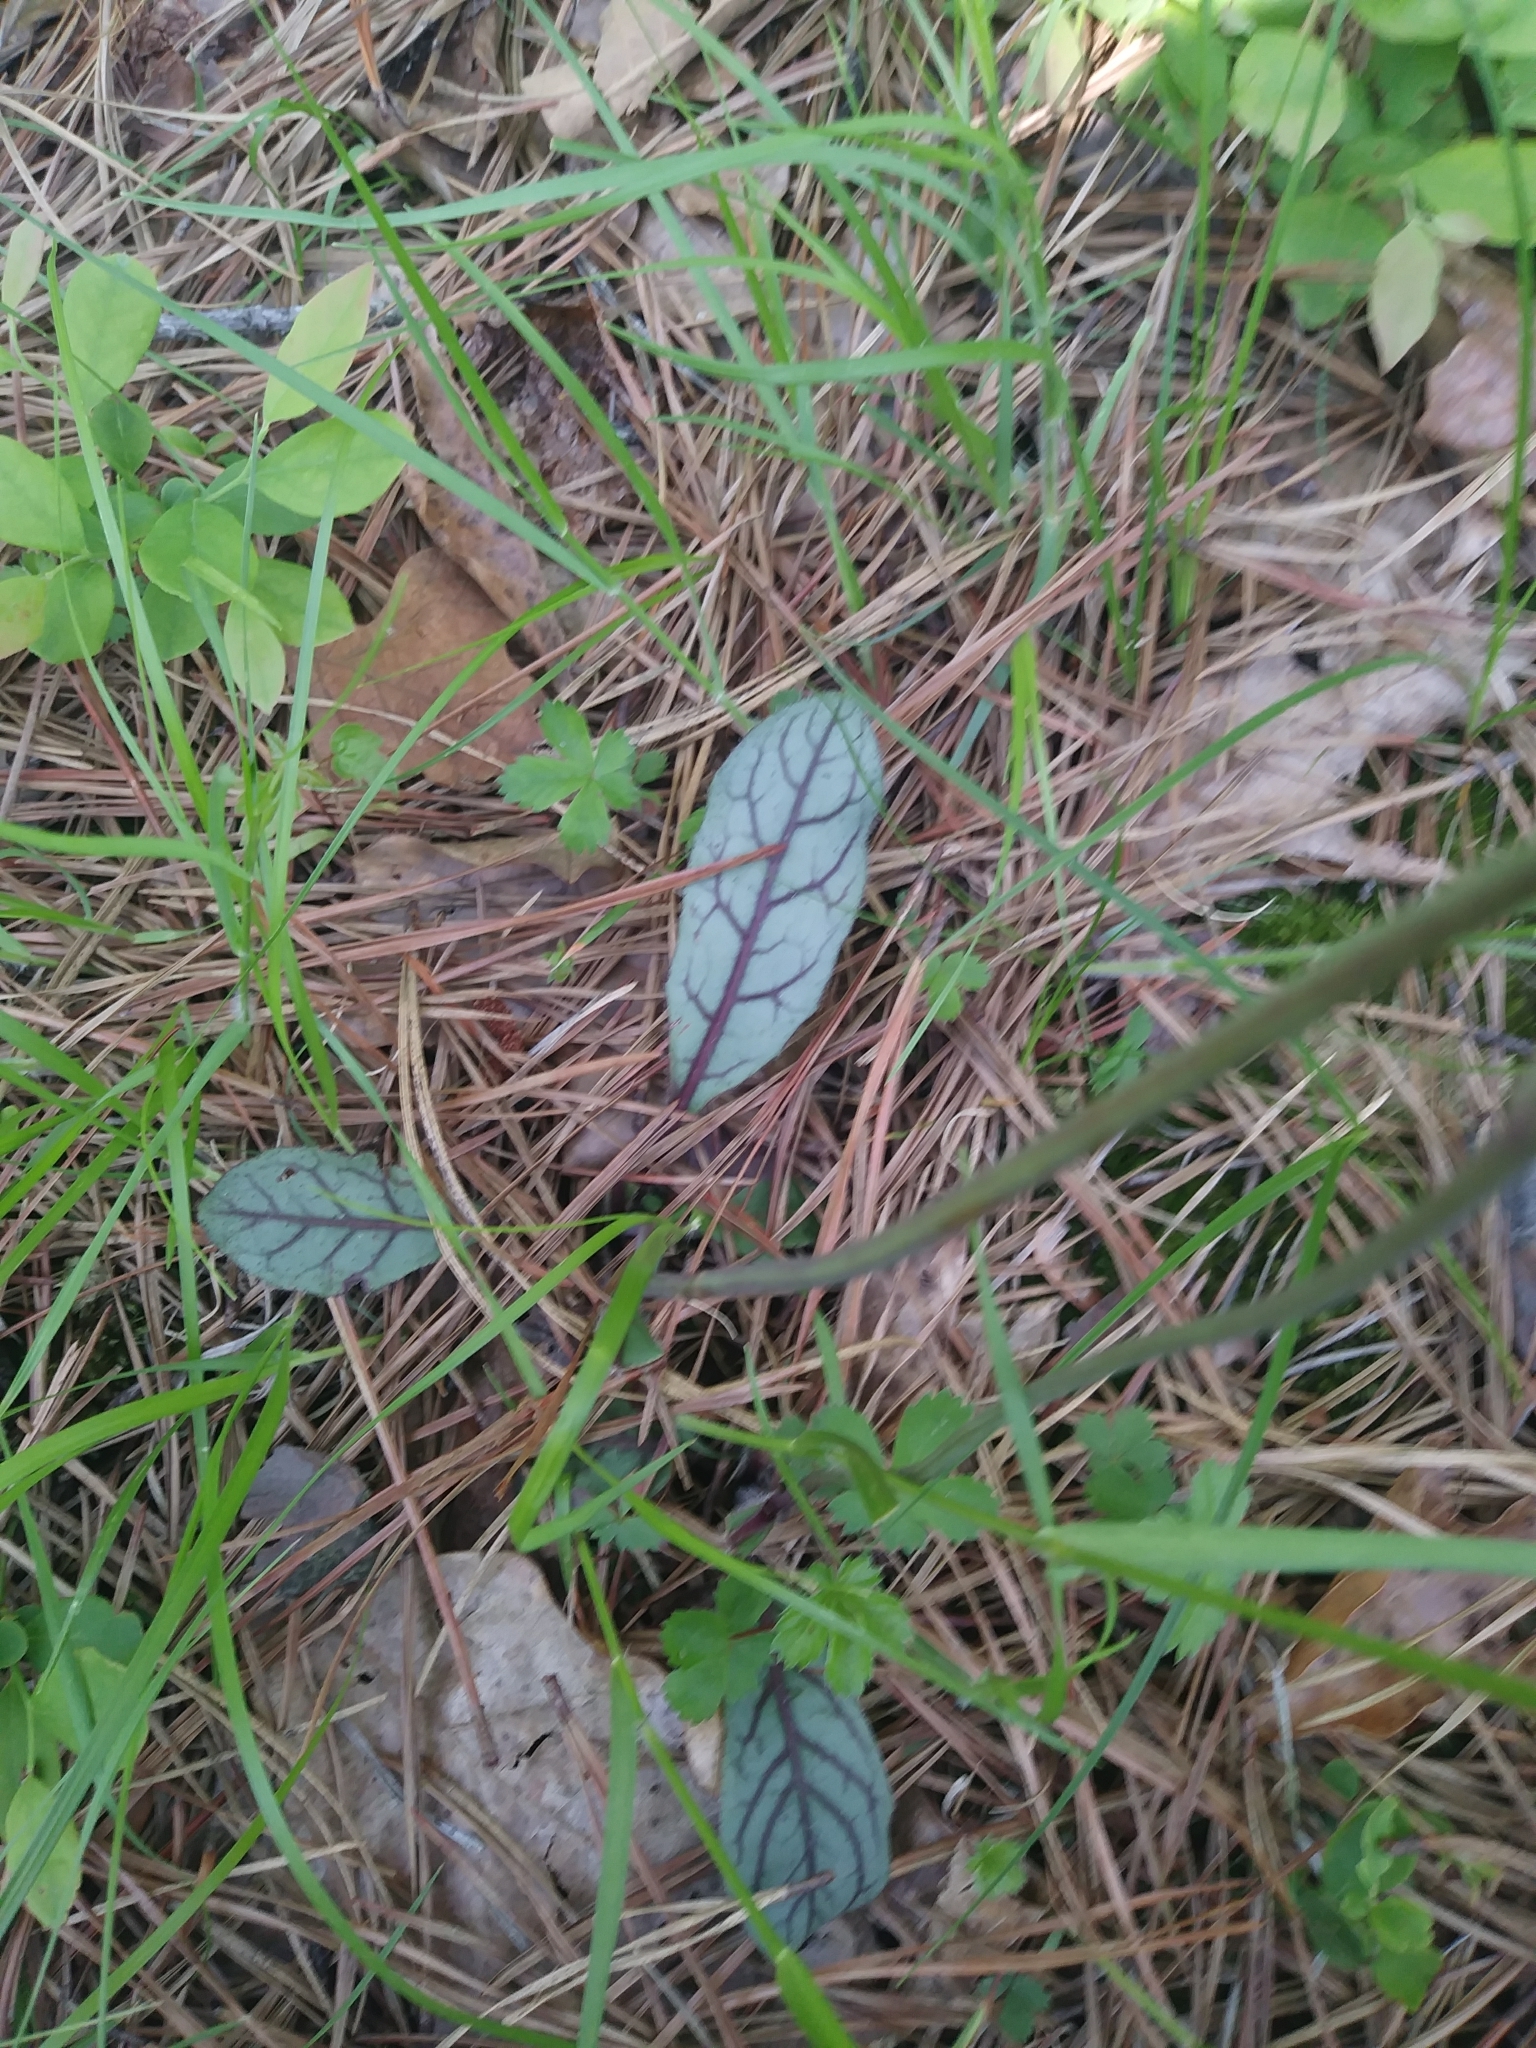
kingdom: Plantae
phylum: Tracheophyta
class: Magnoliopsida
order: Asterales
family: Asteraceae
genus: Hieracium
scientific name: Hieracium venosum
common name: Rattlesnake hawkweed
